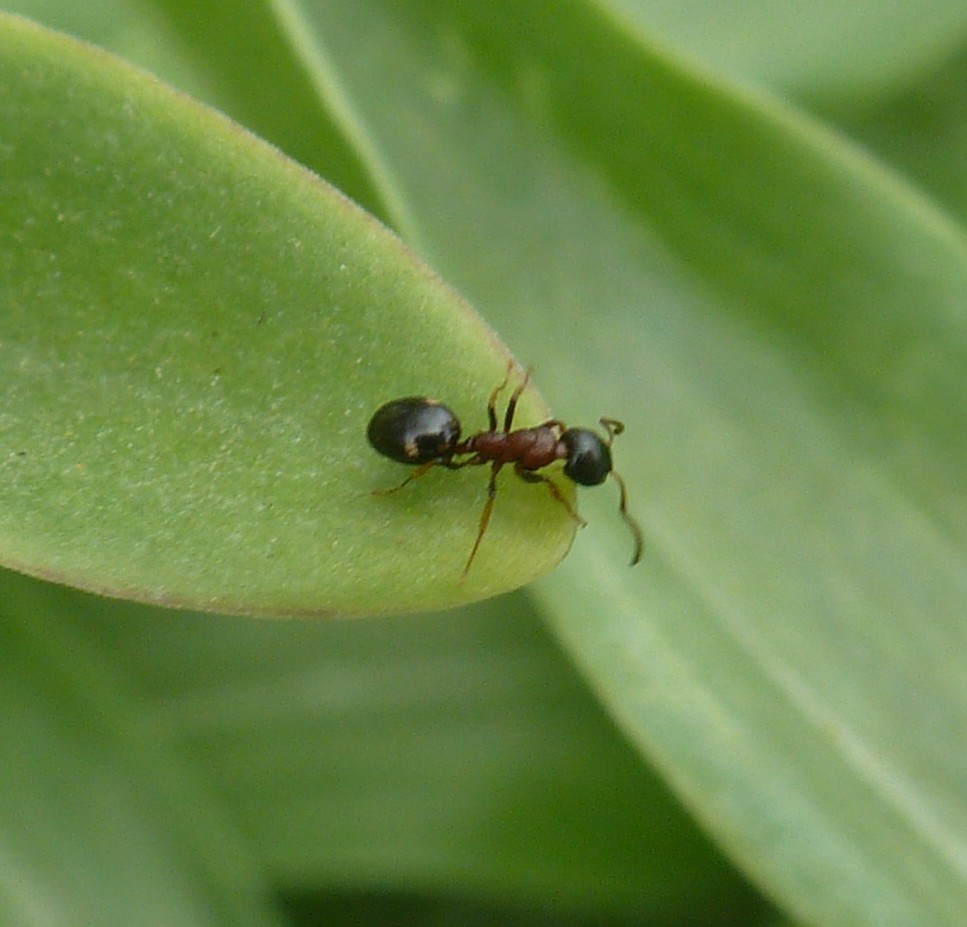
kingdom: Animalia
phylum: Arthropoda
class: Insecta
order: Hymenoptera
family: Formicidae
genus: Dolichoderus
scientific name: Dolichoderus quadripunctatus
